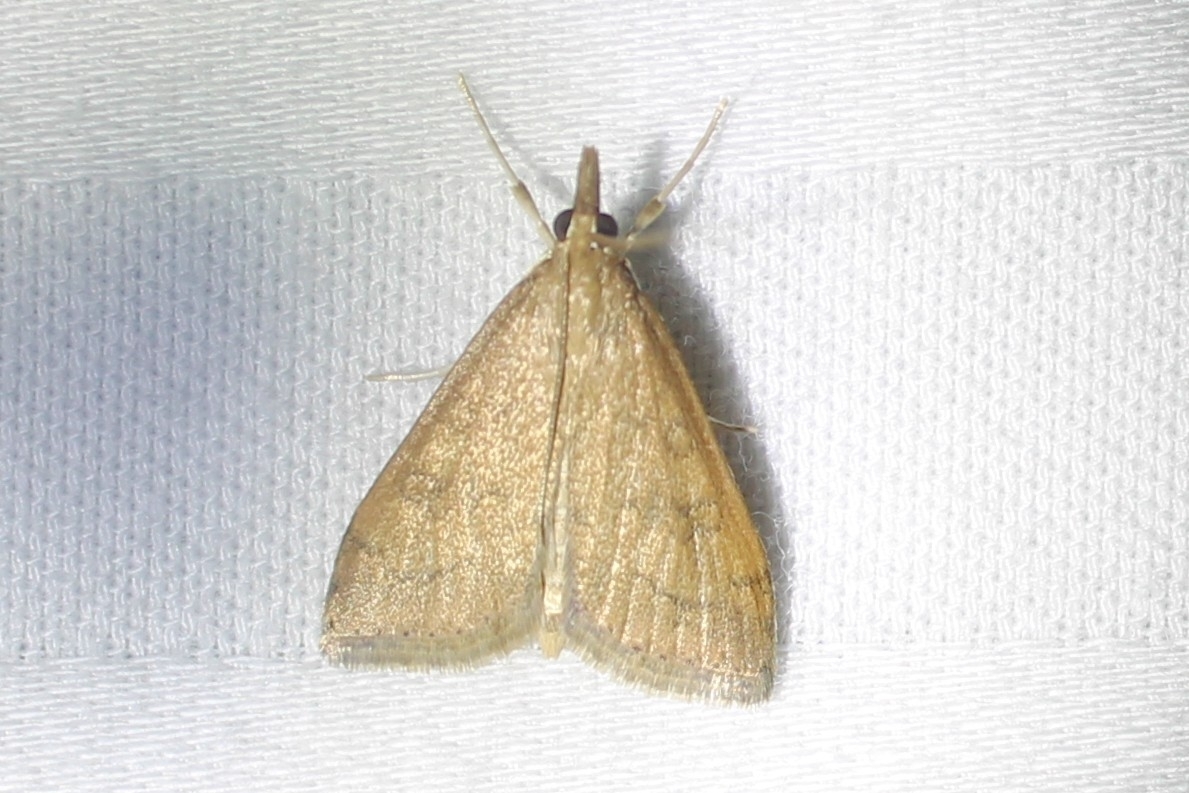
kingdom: Animalia
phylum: Arthropoda
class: Insecta
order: Lepidoptera
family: Crambidae
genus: Udea
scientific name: Udea rubigalis
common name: Celery leaftier moth
